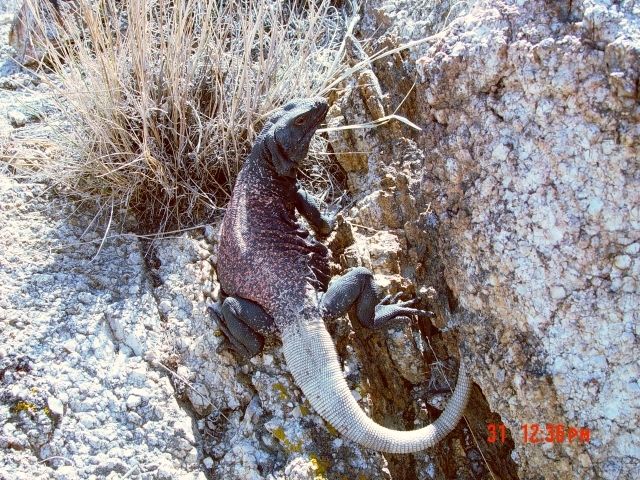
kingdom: Animalia
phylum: Chordata
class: Squamata
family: Iguanidae
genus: Sauromalus
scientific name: Sauromalus ater
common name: Northern chuckwalla
